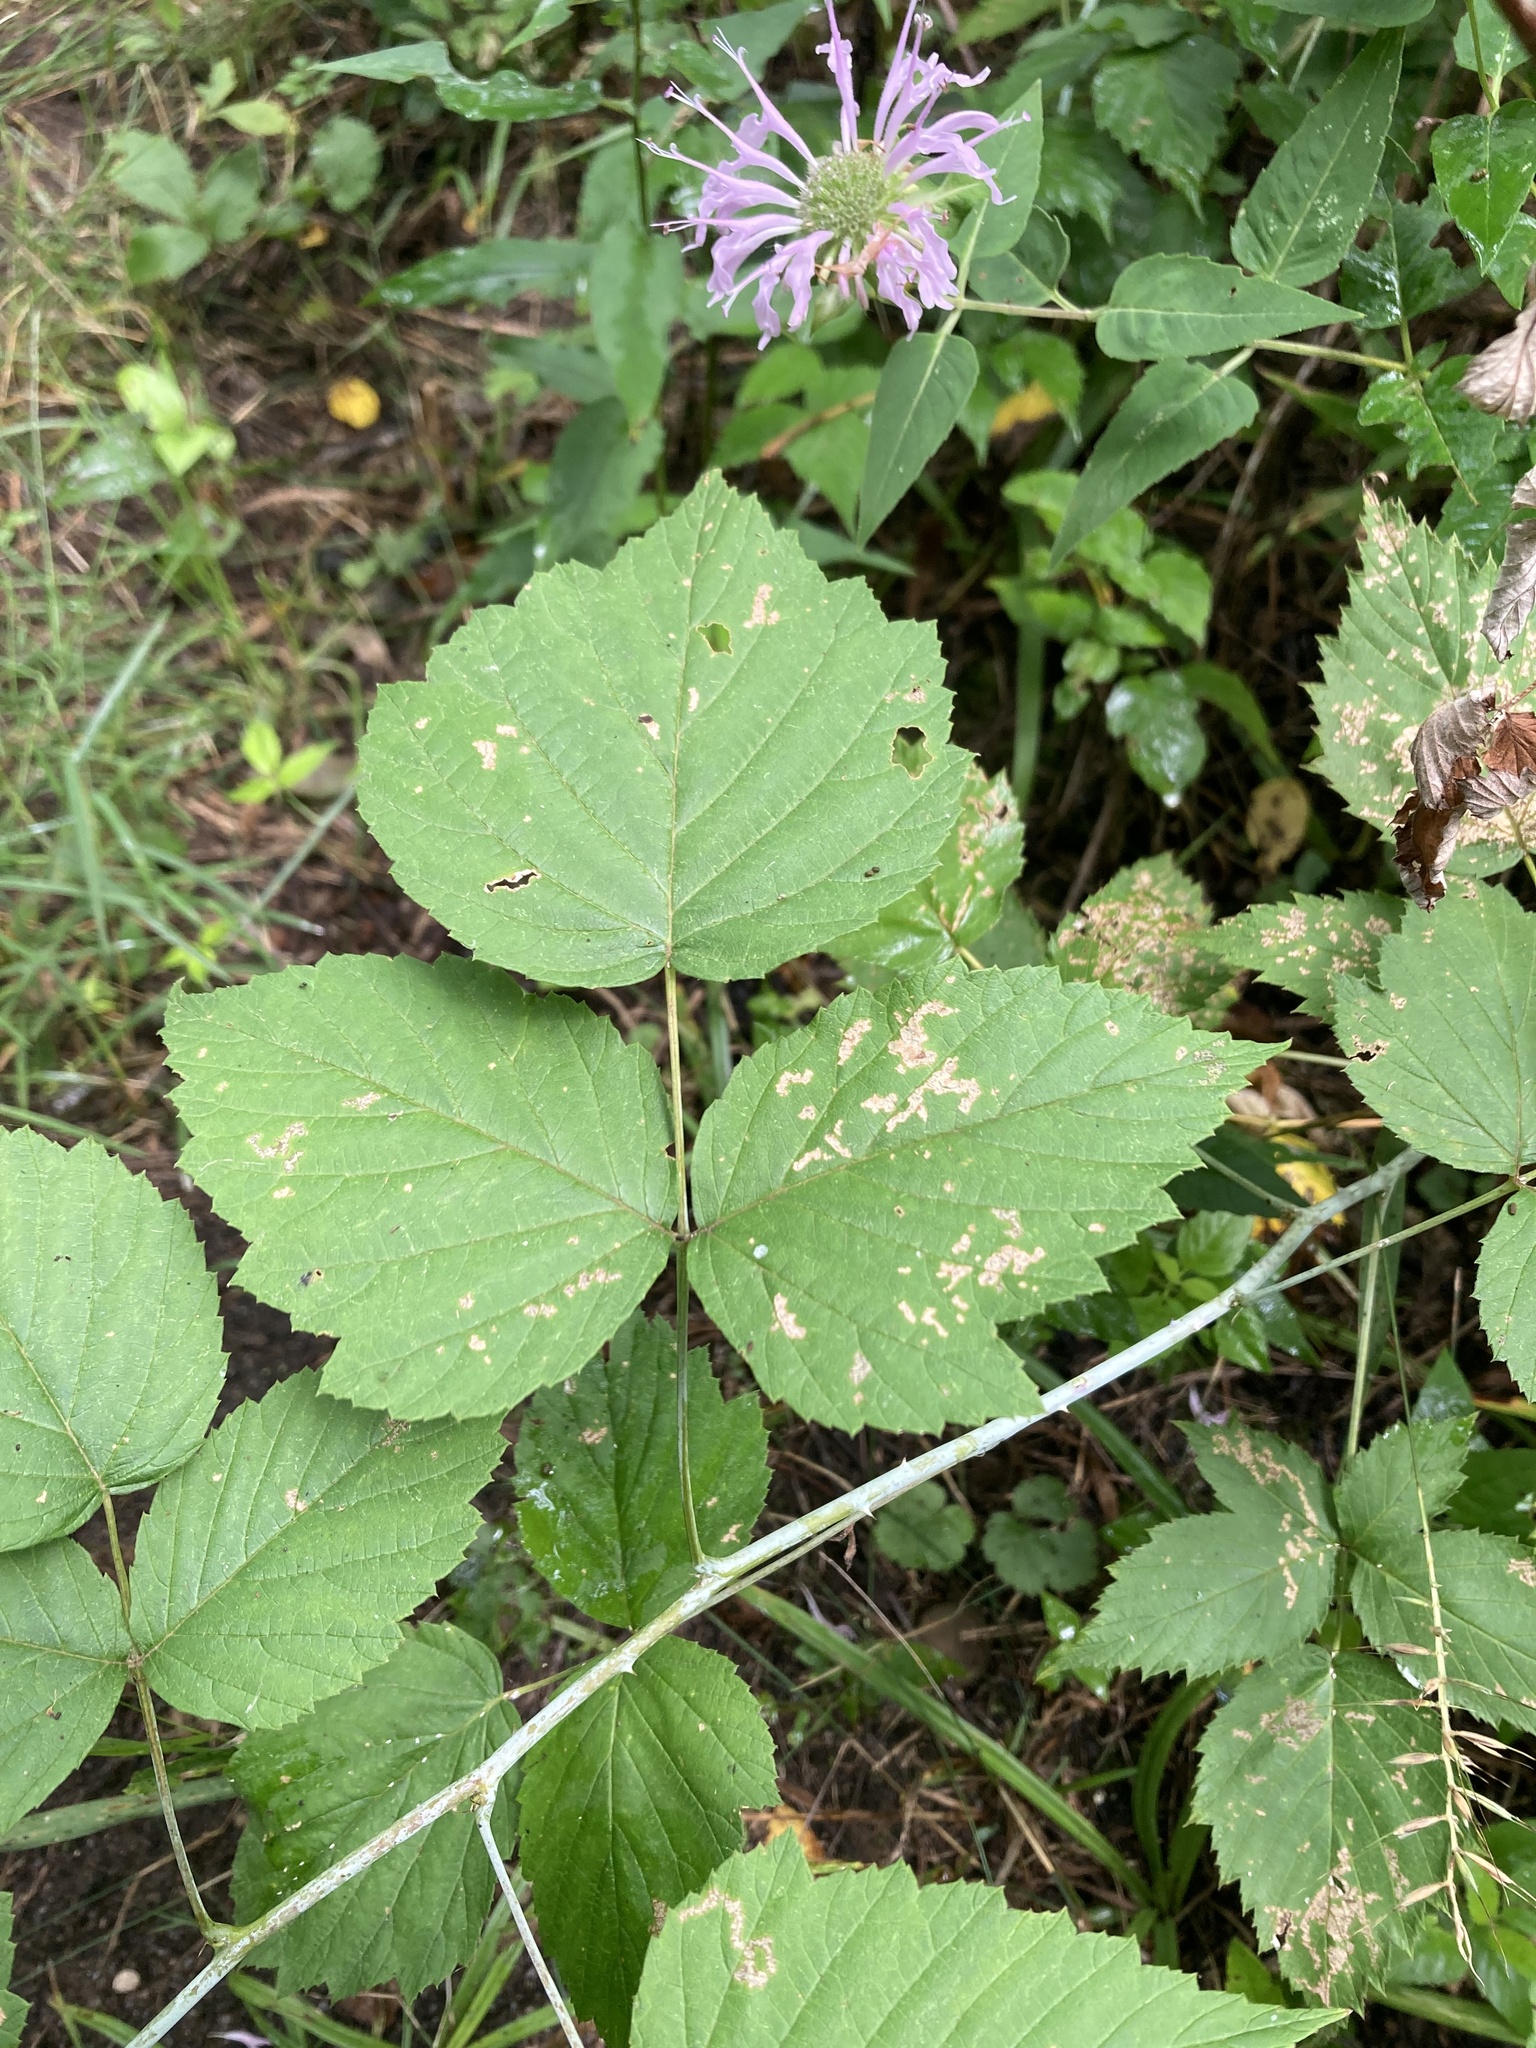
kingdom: Plantae
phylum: Tracheophyta
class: Magnoliopsida
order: Rosales
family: Rosaceae
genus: Rubus
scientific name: Rubus occidentalis
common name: Black raspberry
